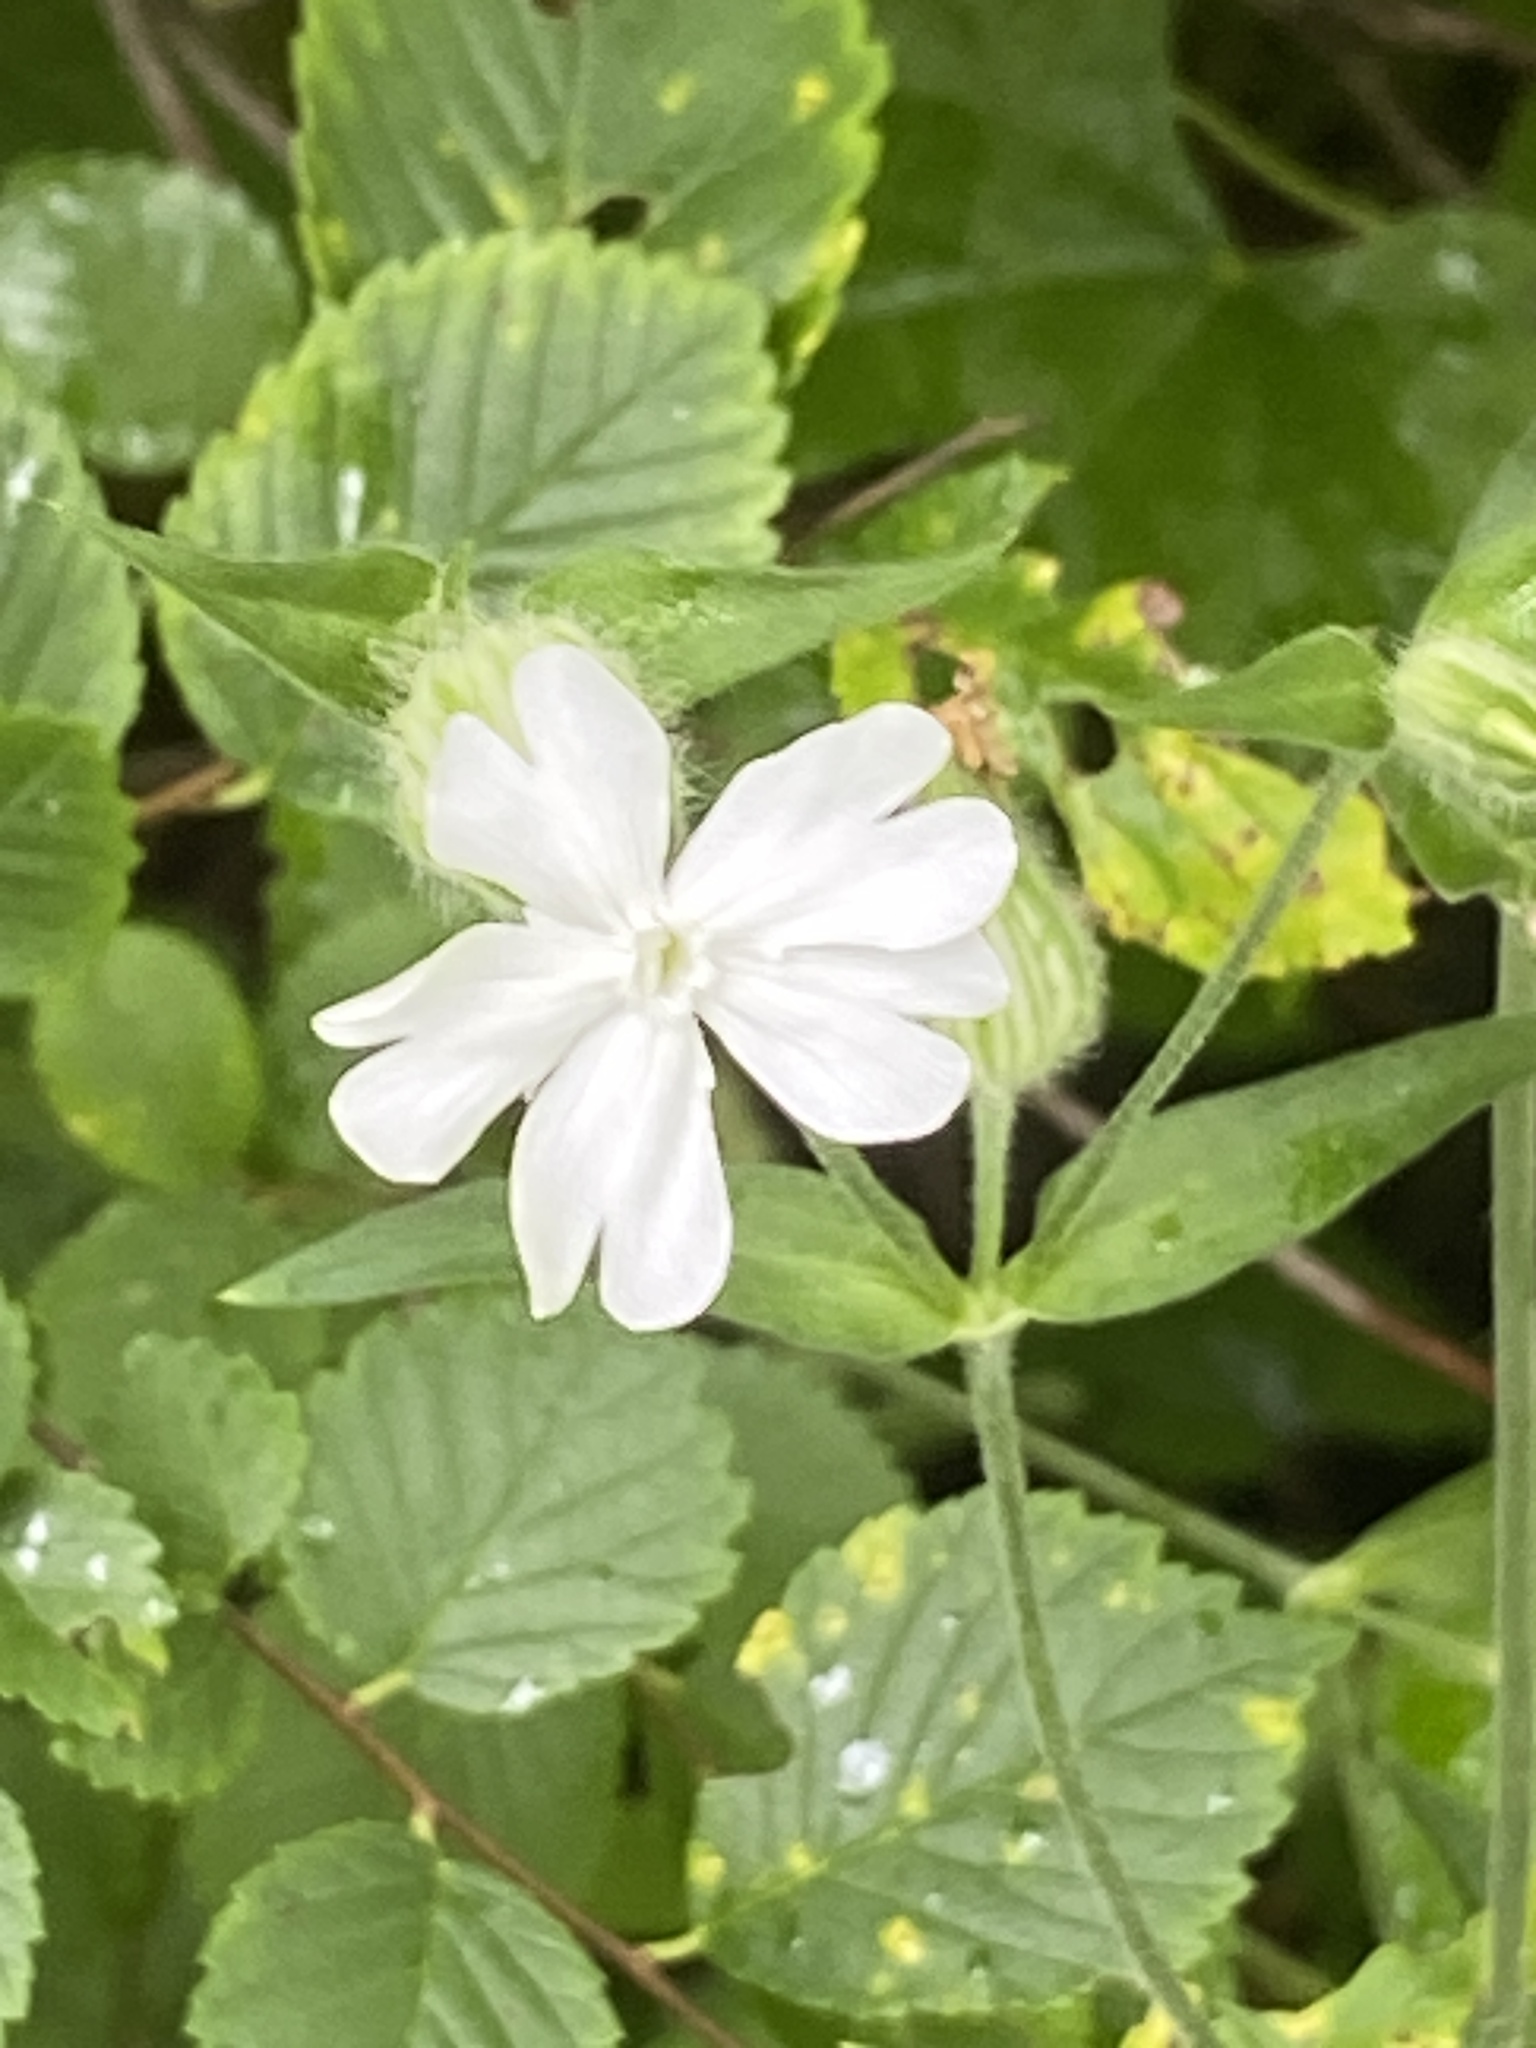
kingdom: Plantae
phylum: Tracheophyta
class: Magnoliopsida
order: Caryophyllales
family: Caryophyllaceae
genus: Silene
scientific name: Silene latifolia
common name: White campion
